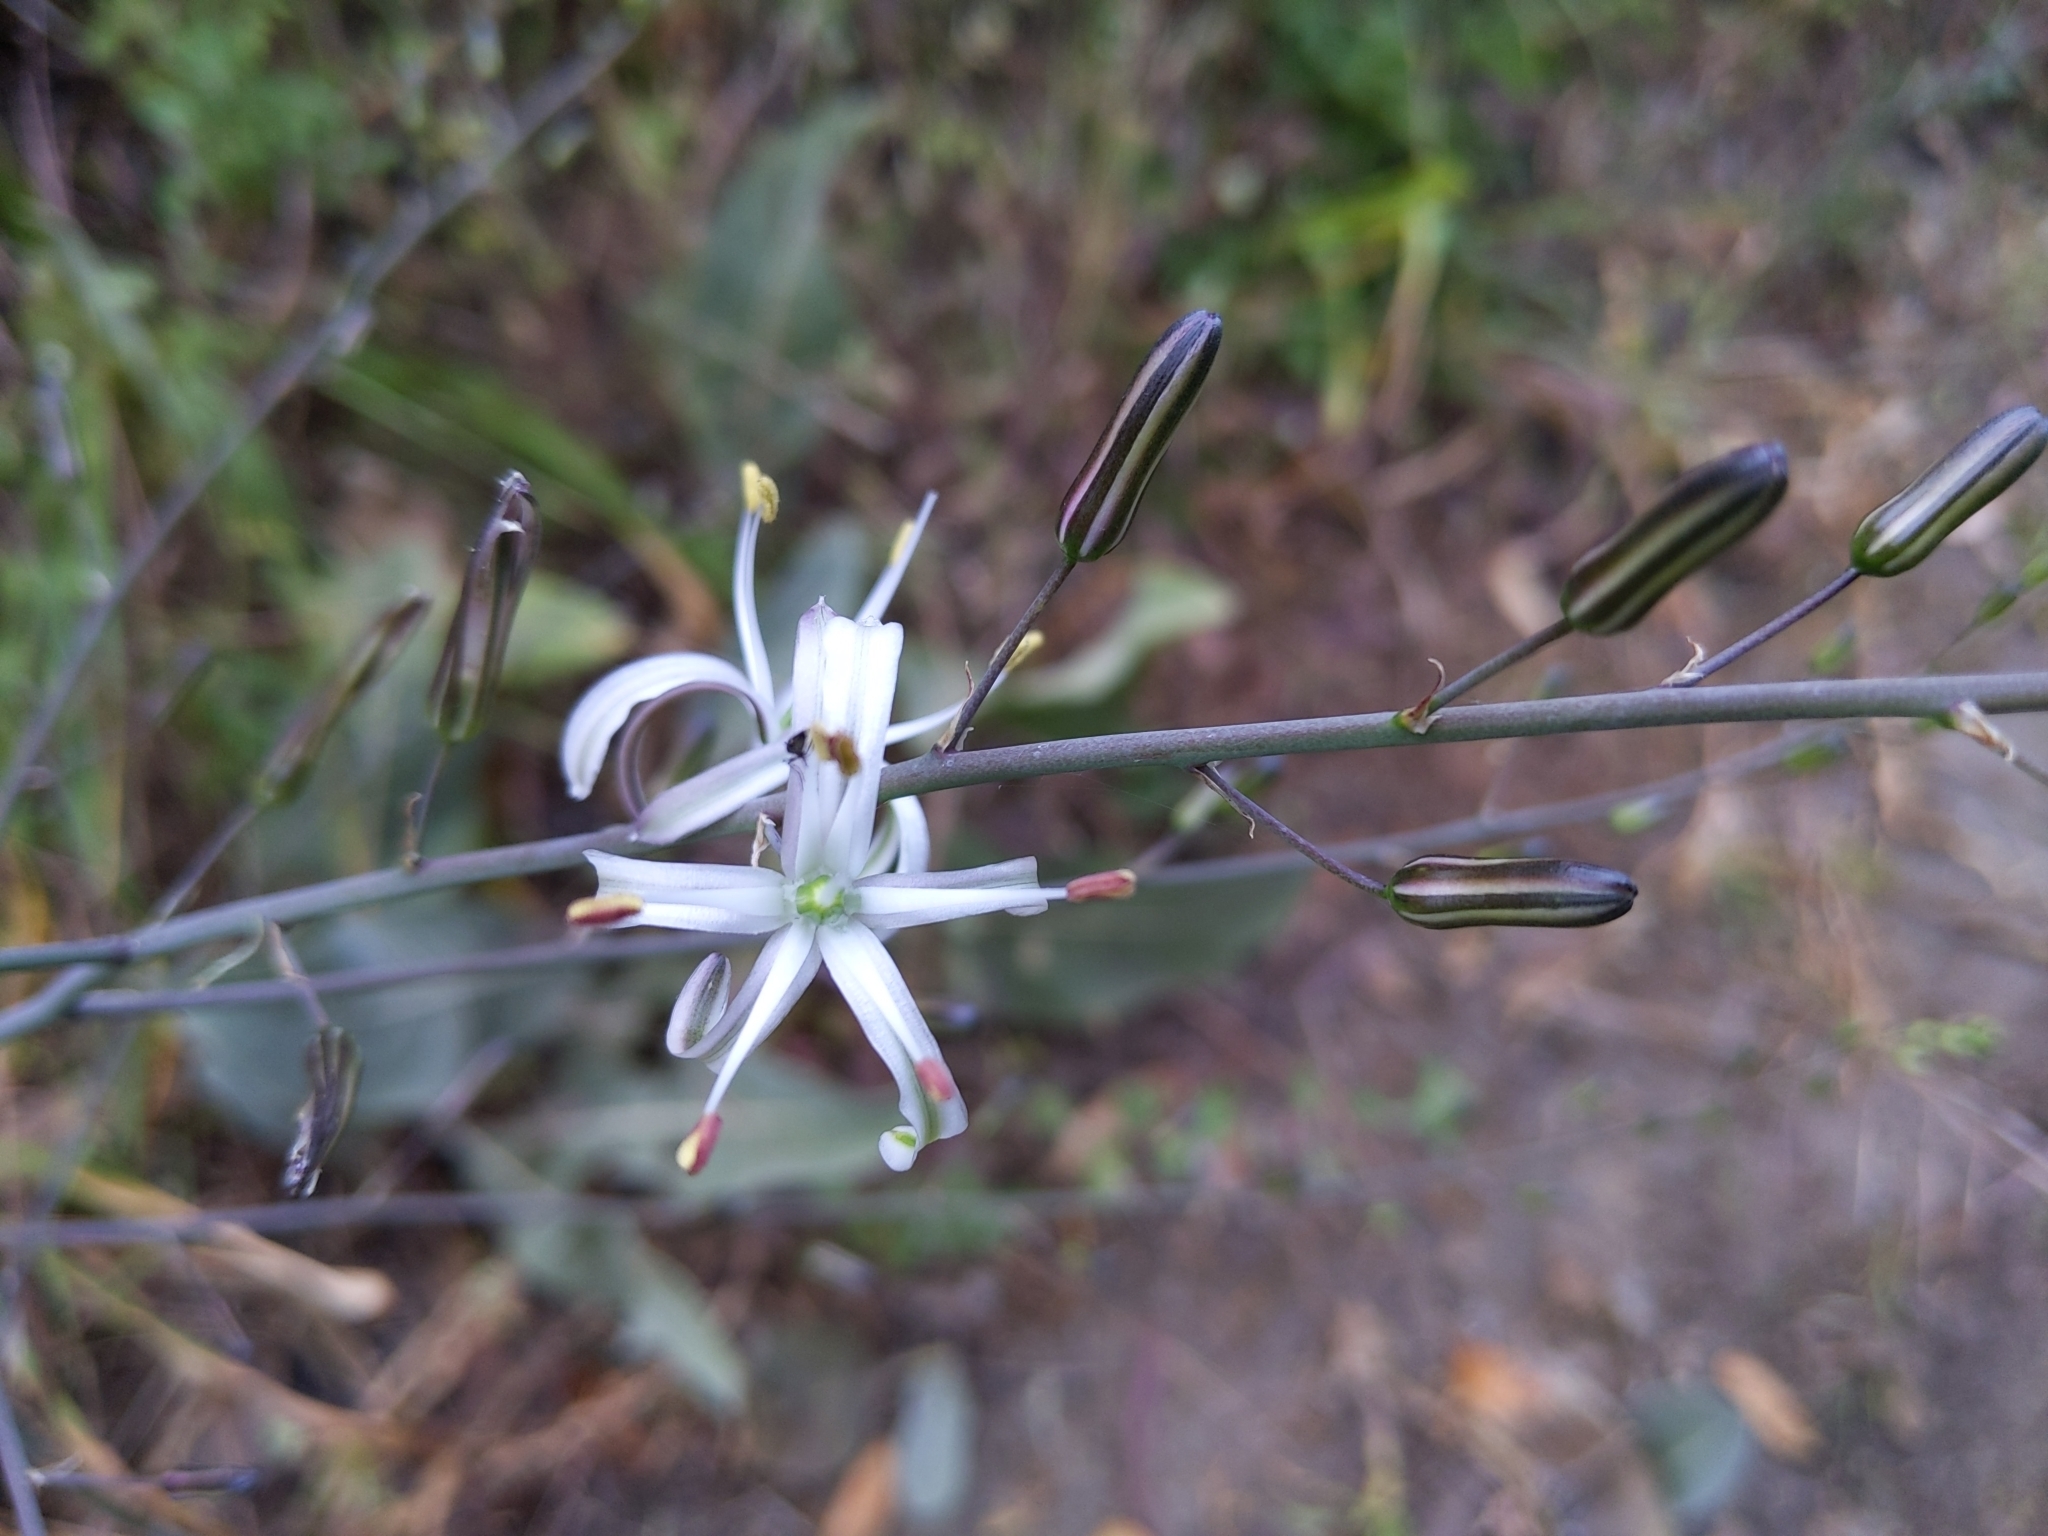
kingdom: Plantae
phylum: Tracheophyta
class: Liliopsida
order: Asparagales
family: Asparagaceae
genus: Chlorogalum
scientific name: Chlorogalum pomeridianum
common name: Amole
